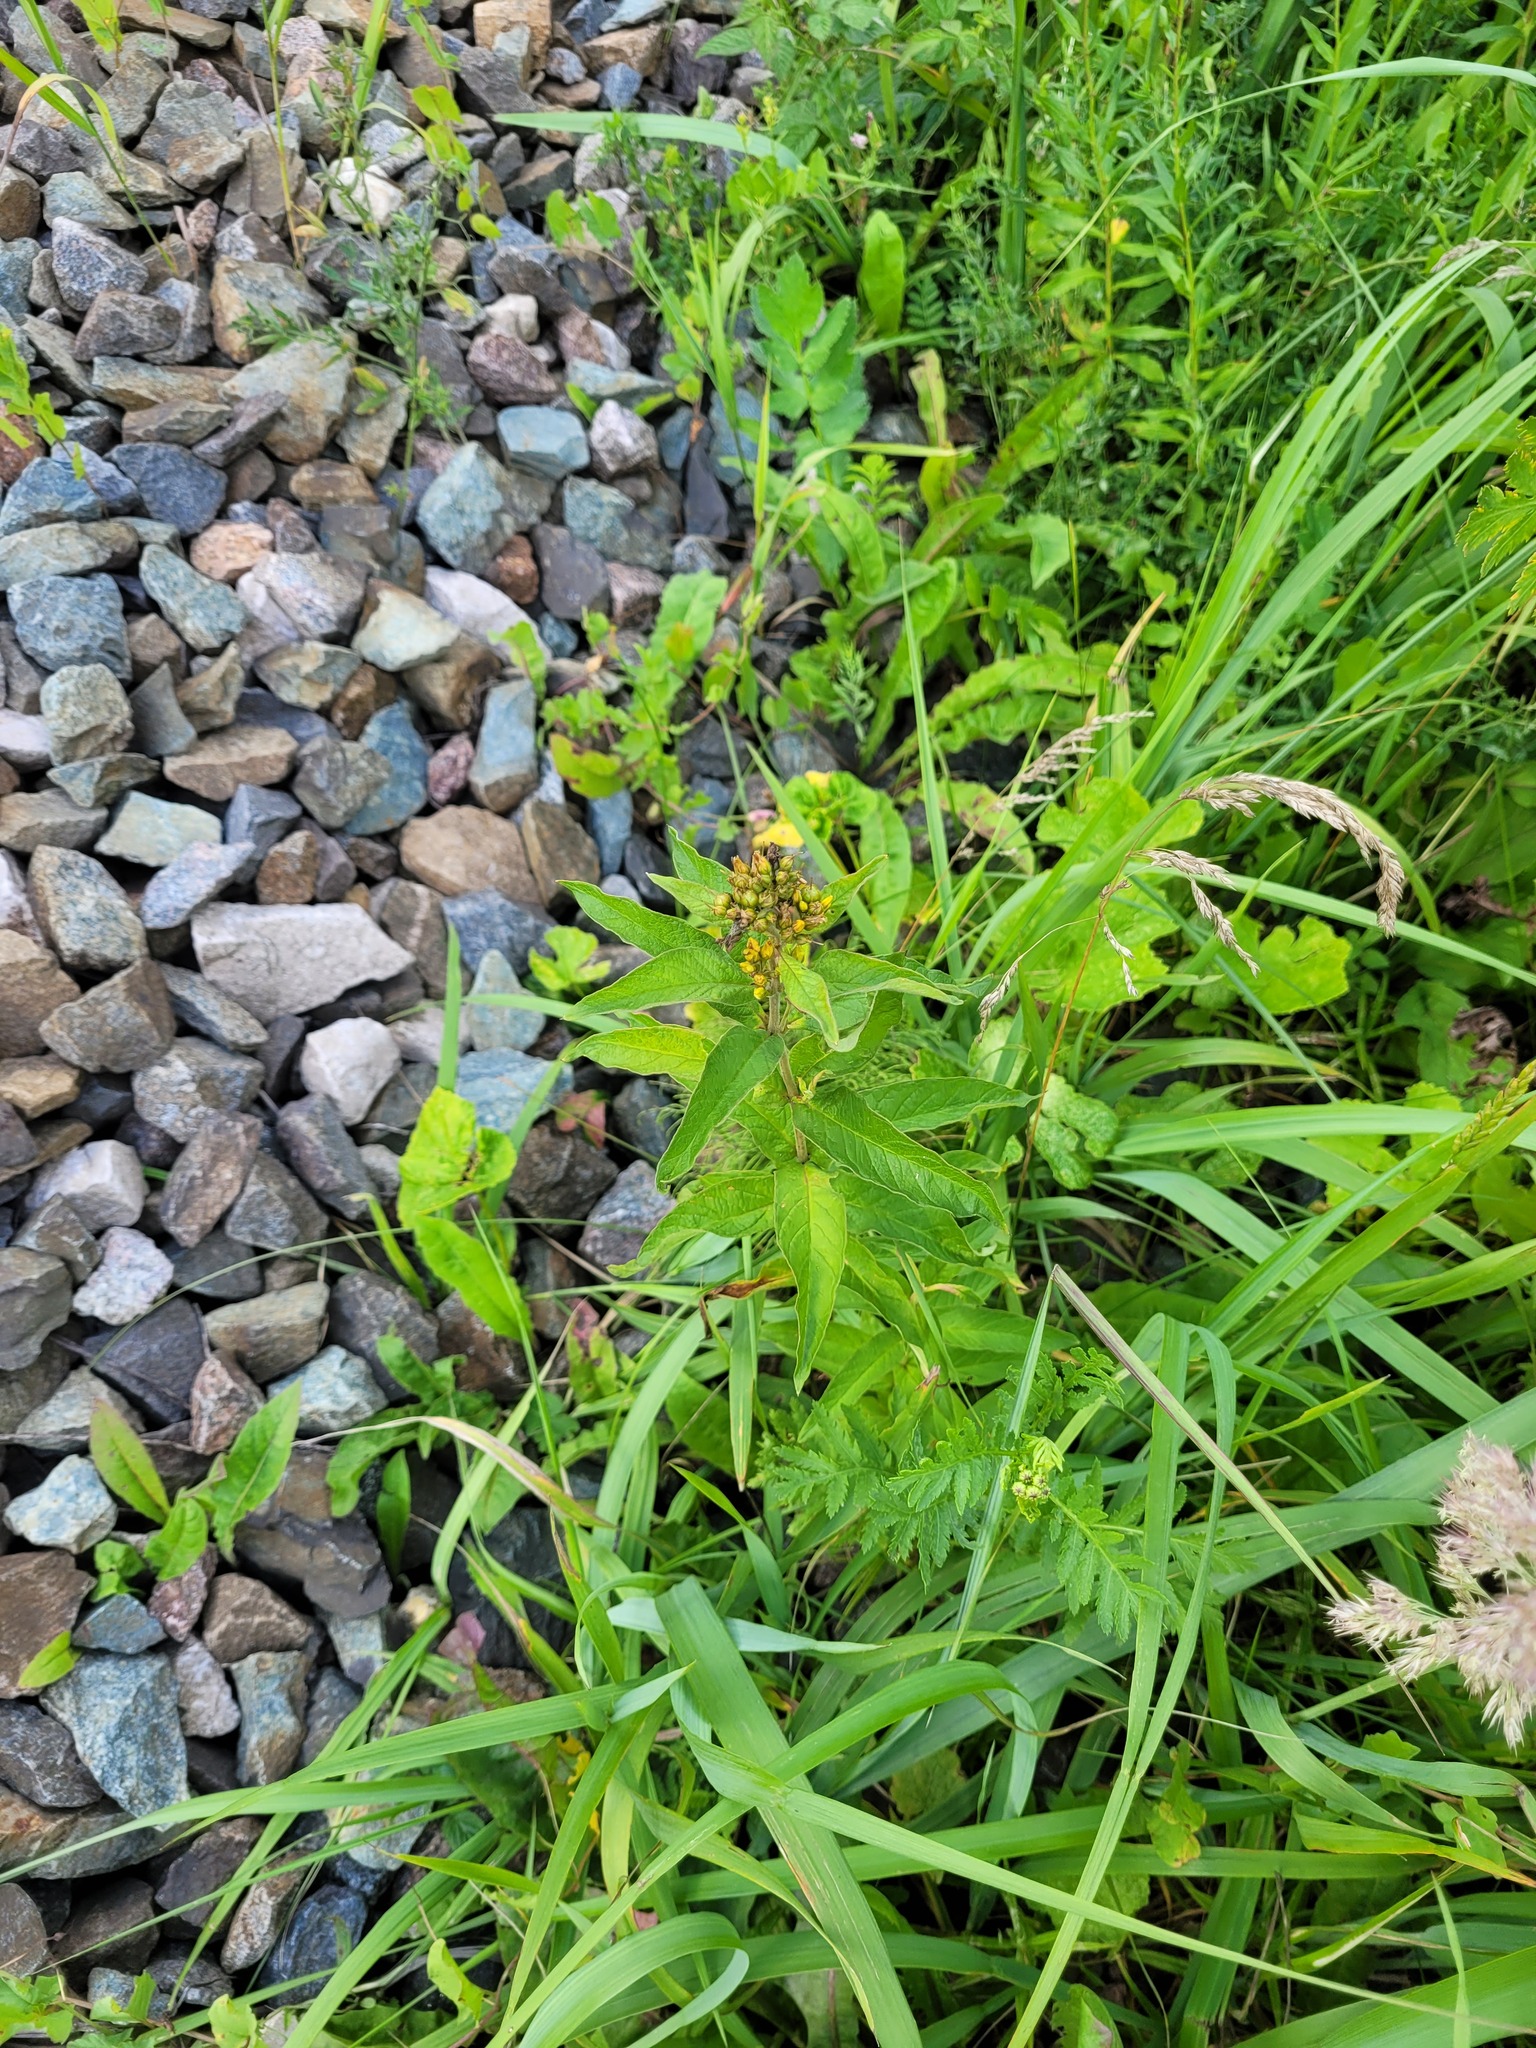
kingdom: Plantae
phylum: Tracheophyta
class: Magnoliopsida
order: Ericales
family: Primulaceae
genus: Lysimachia
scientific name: Lysimachia vulgaris
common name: Yellow loosestrife
